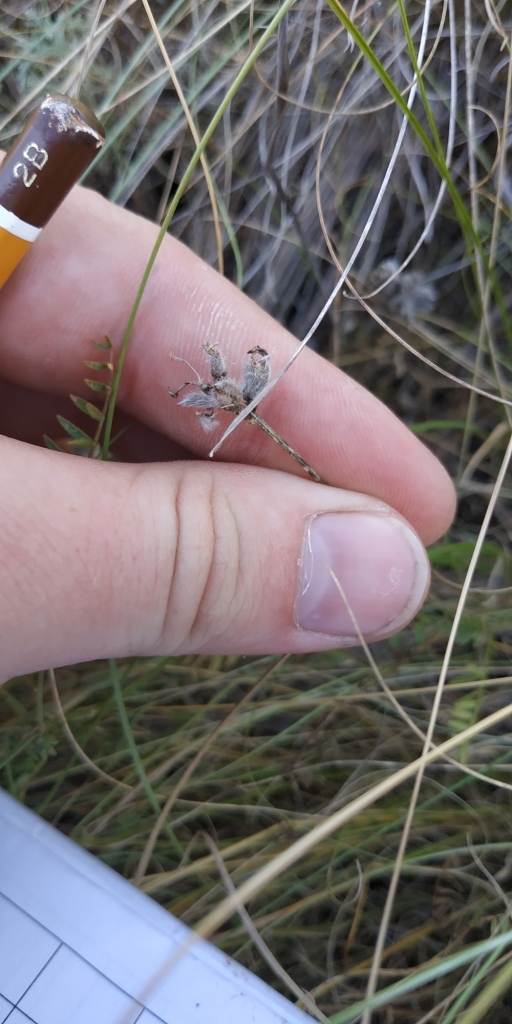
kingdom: Plantae
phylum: Tracheophyta
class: Magnoliopsida
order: Fabales
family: Fabaceae
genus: Astragalus
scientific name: Astragalus sulcatus
